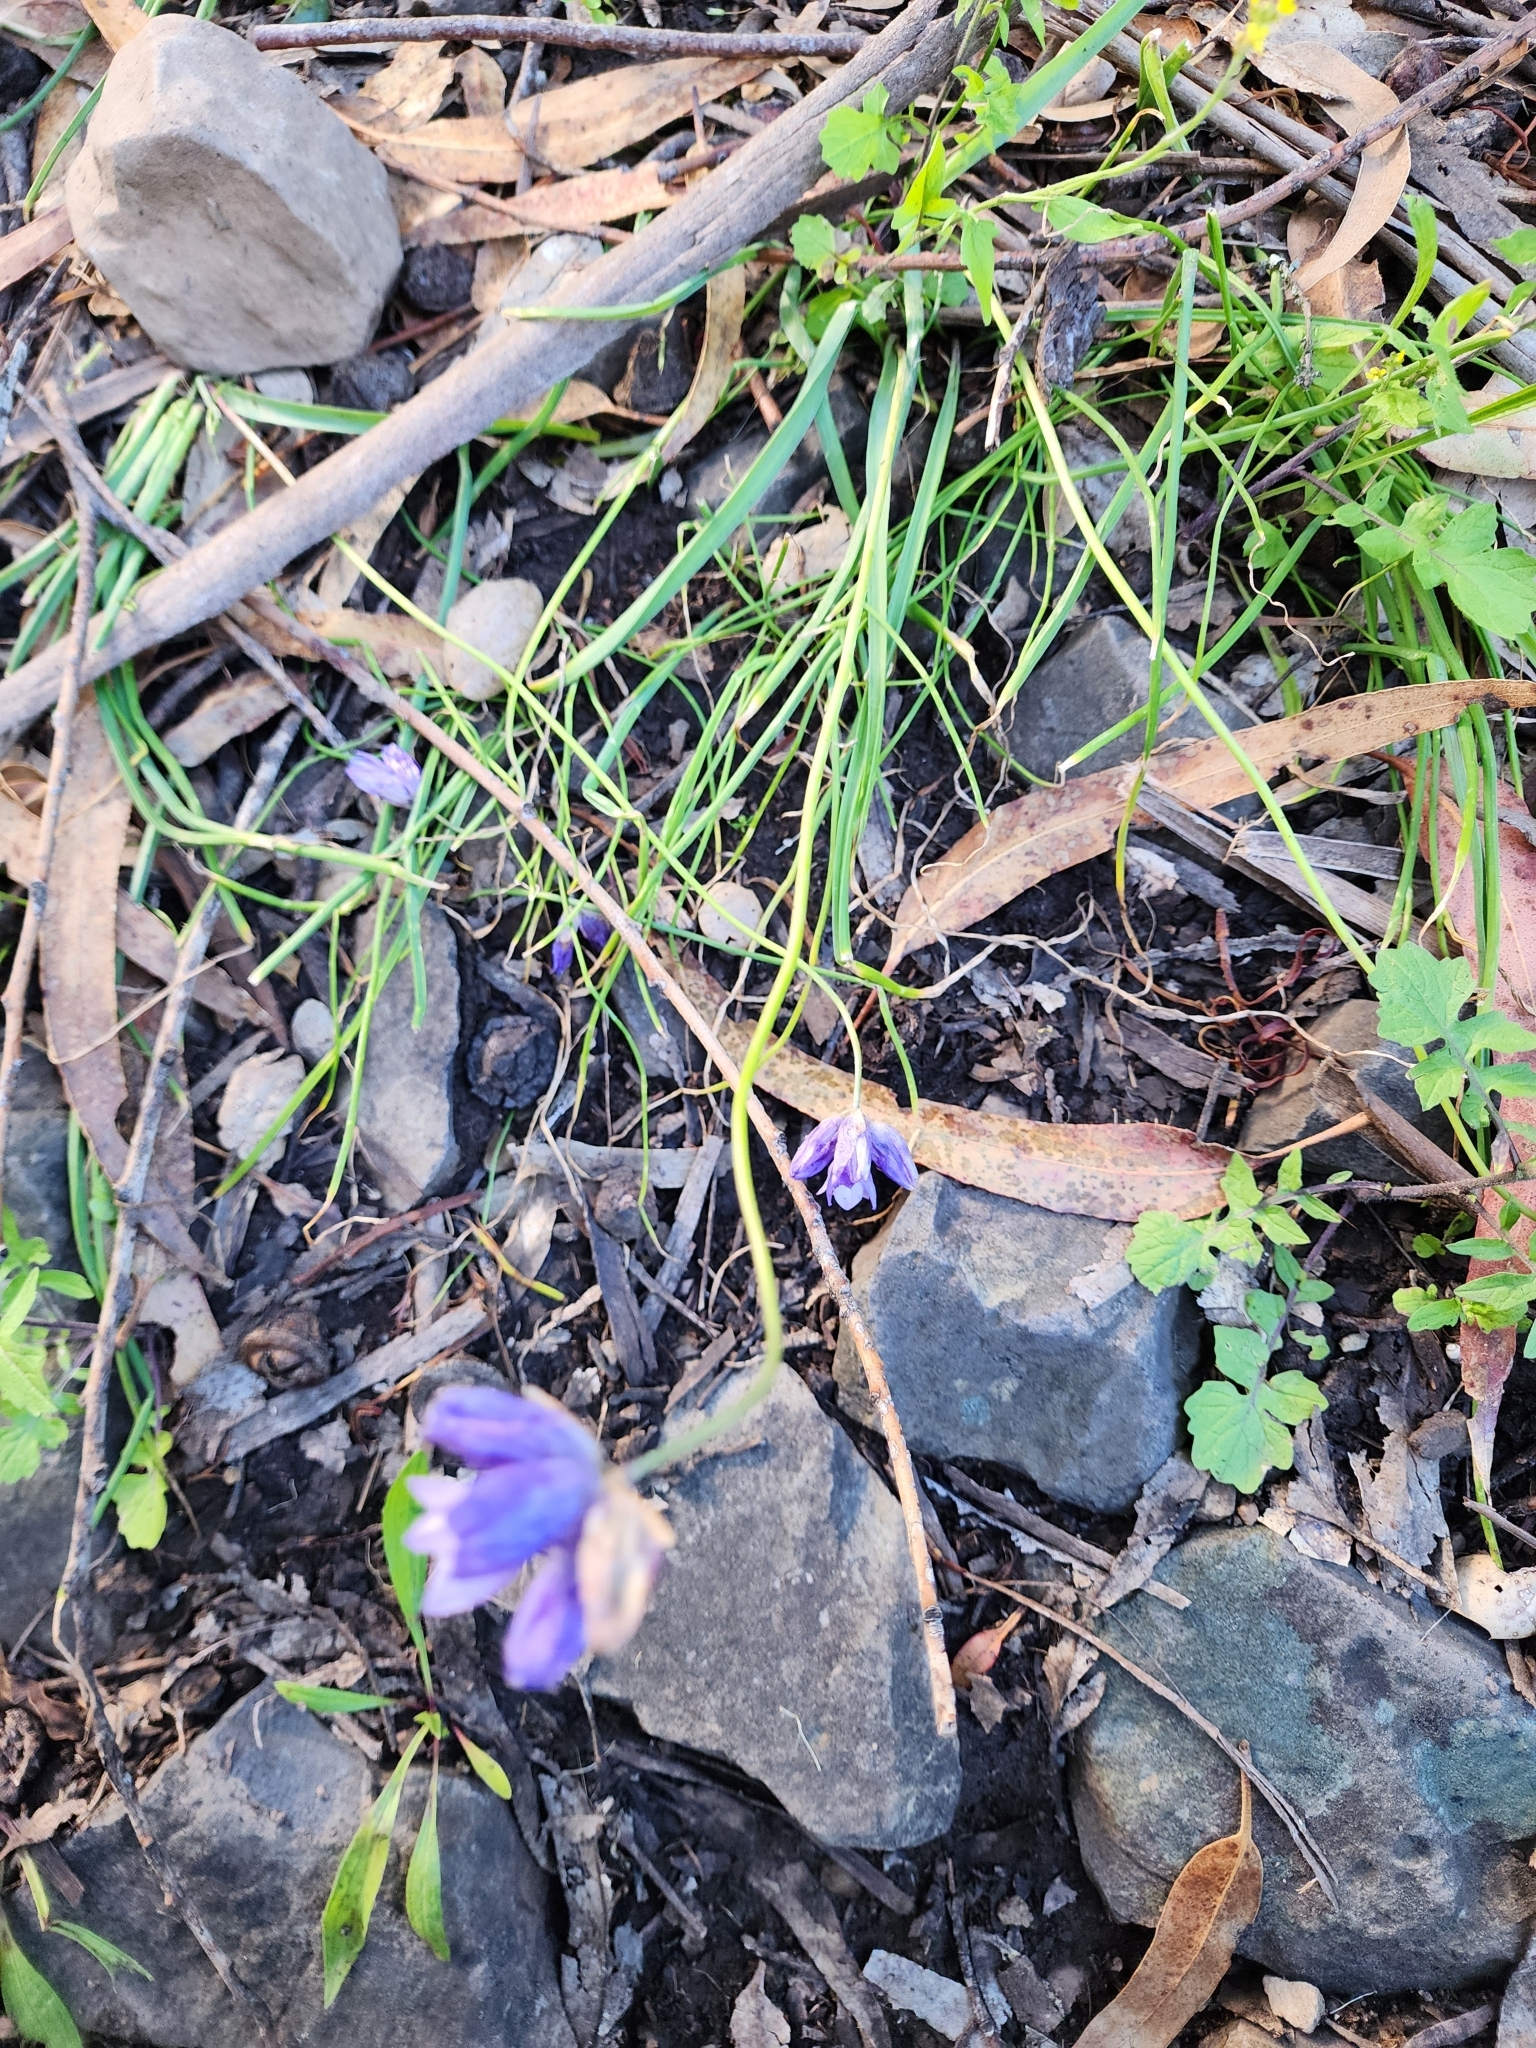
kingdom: Plantae
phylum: Tracheophyta
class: Liliopsida
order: Asparagales
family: Asparagaceae
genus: Dipterostemon
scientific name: Dipterostemon capitatus
